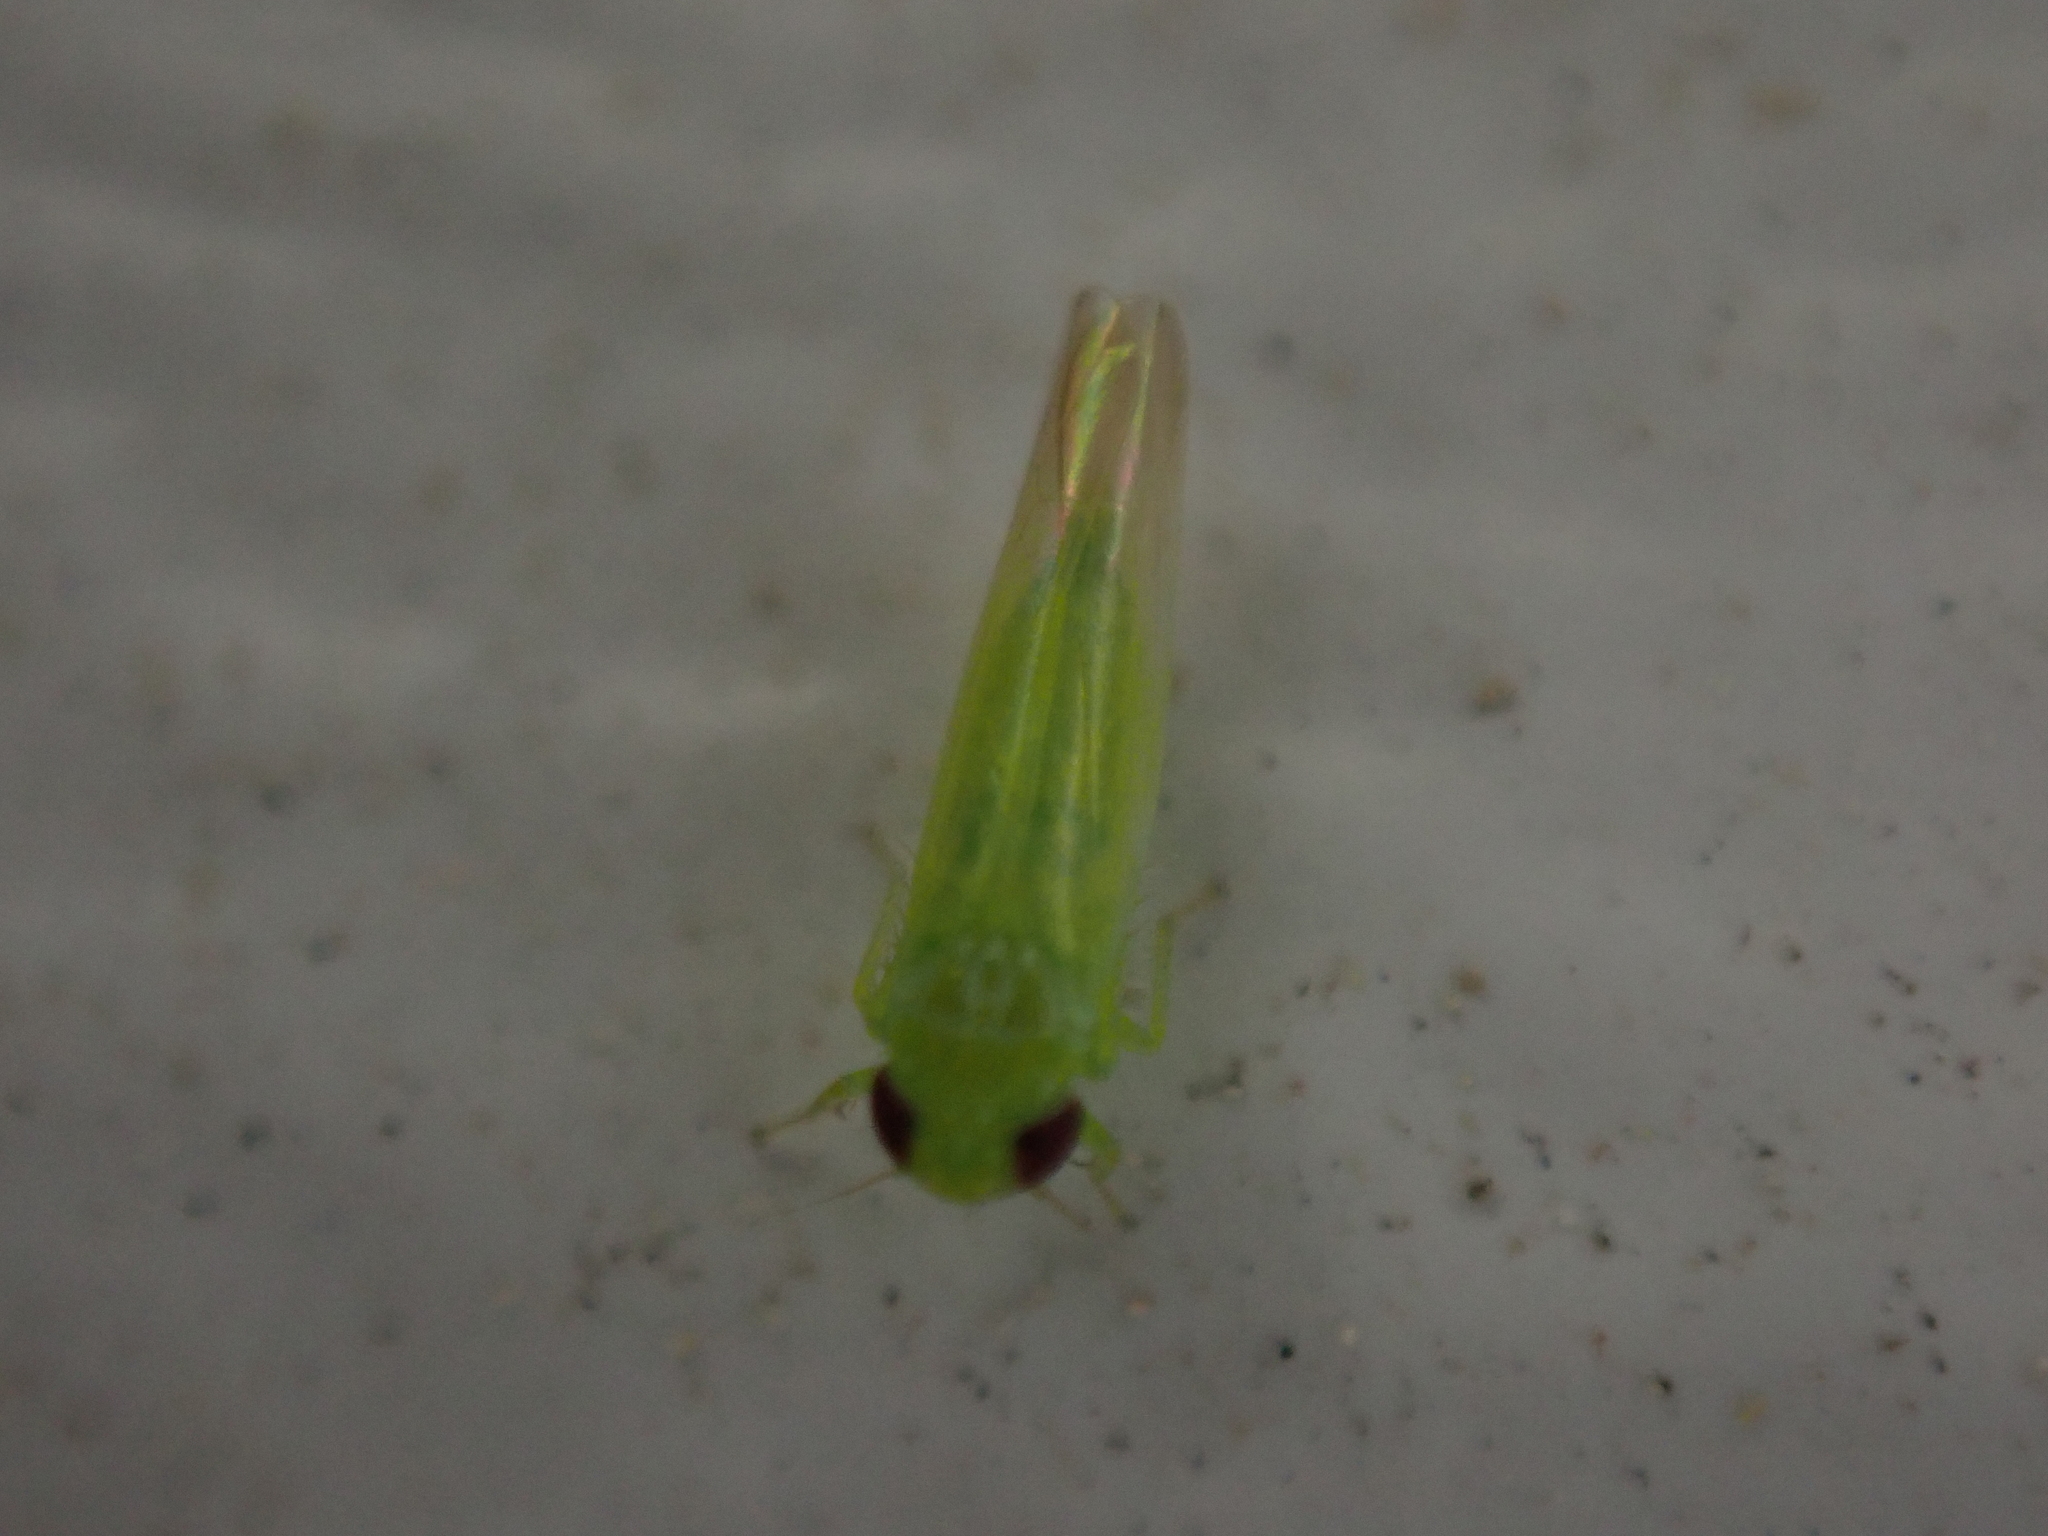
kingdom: Animalia
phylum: Arthropoda
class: Insecta
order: Hemiptera
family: Cicadellidae
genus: Empoasca
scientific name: Empoasca fabae
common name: Potato leafhopper
